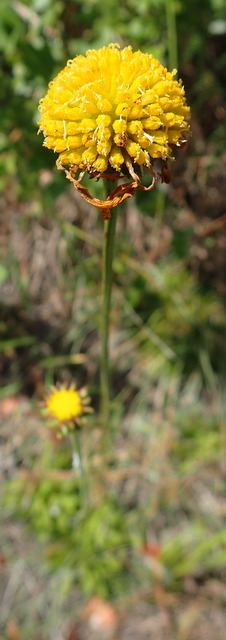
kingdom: Plantae
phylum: Tracheophyta
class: Magnoliopsida
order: Asterales
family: Asteraceae
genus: Balduina
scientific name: Balduina uniflora
